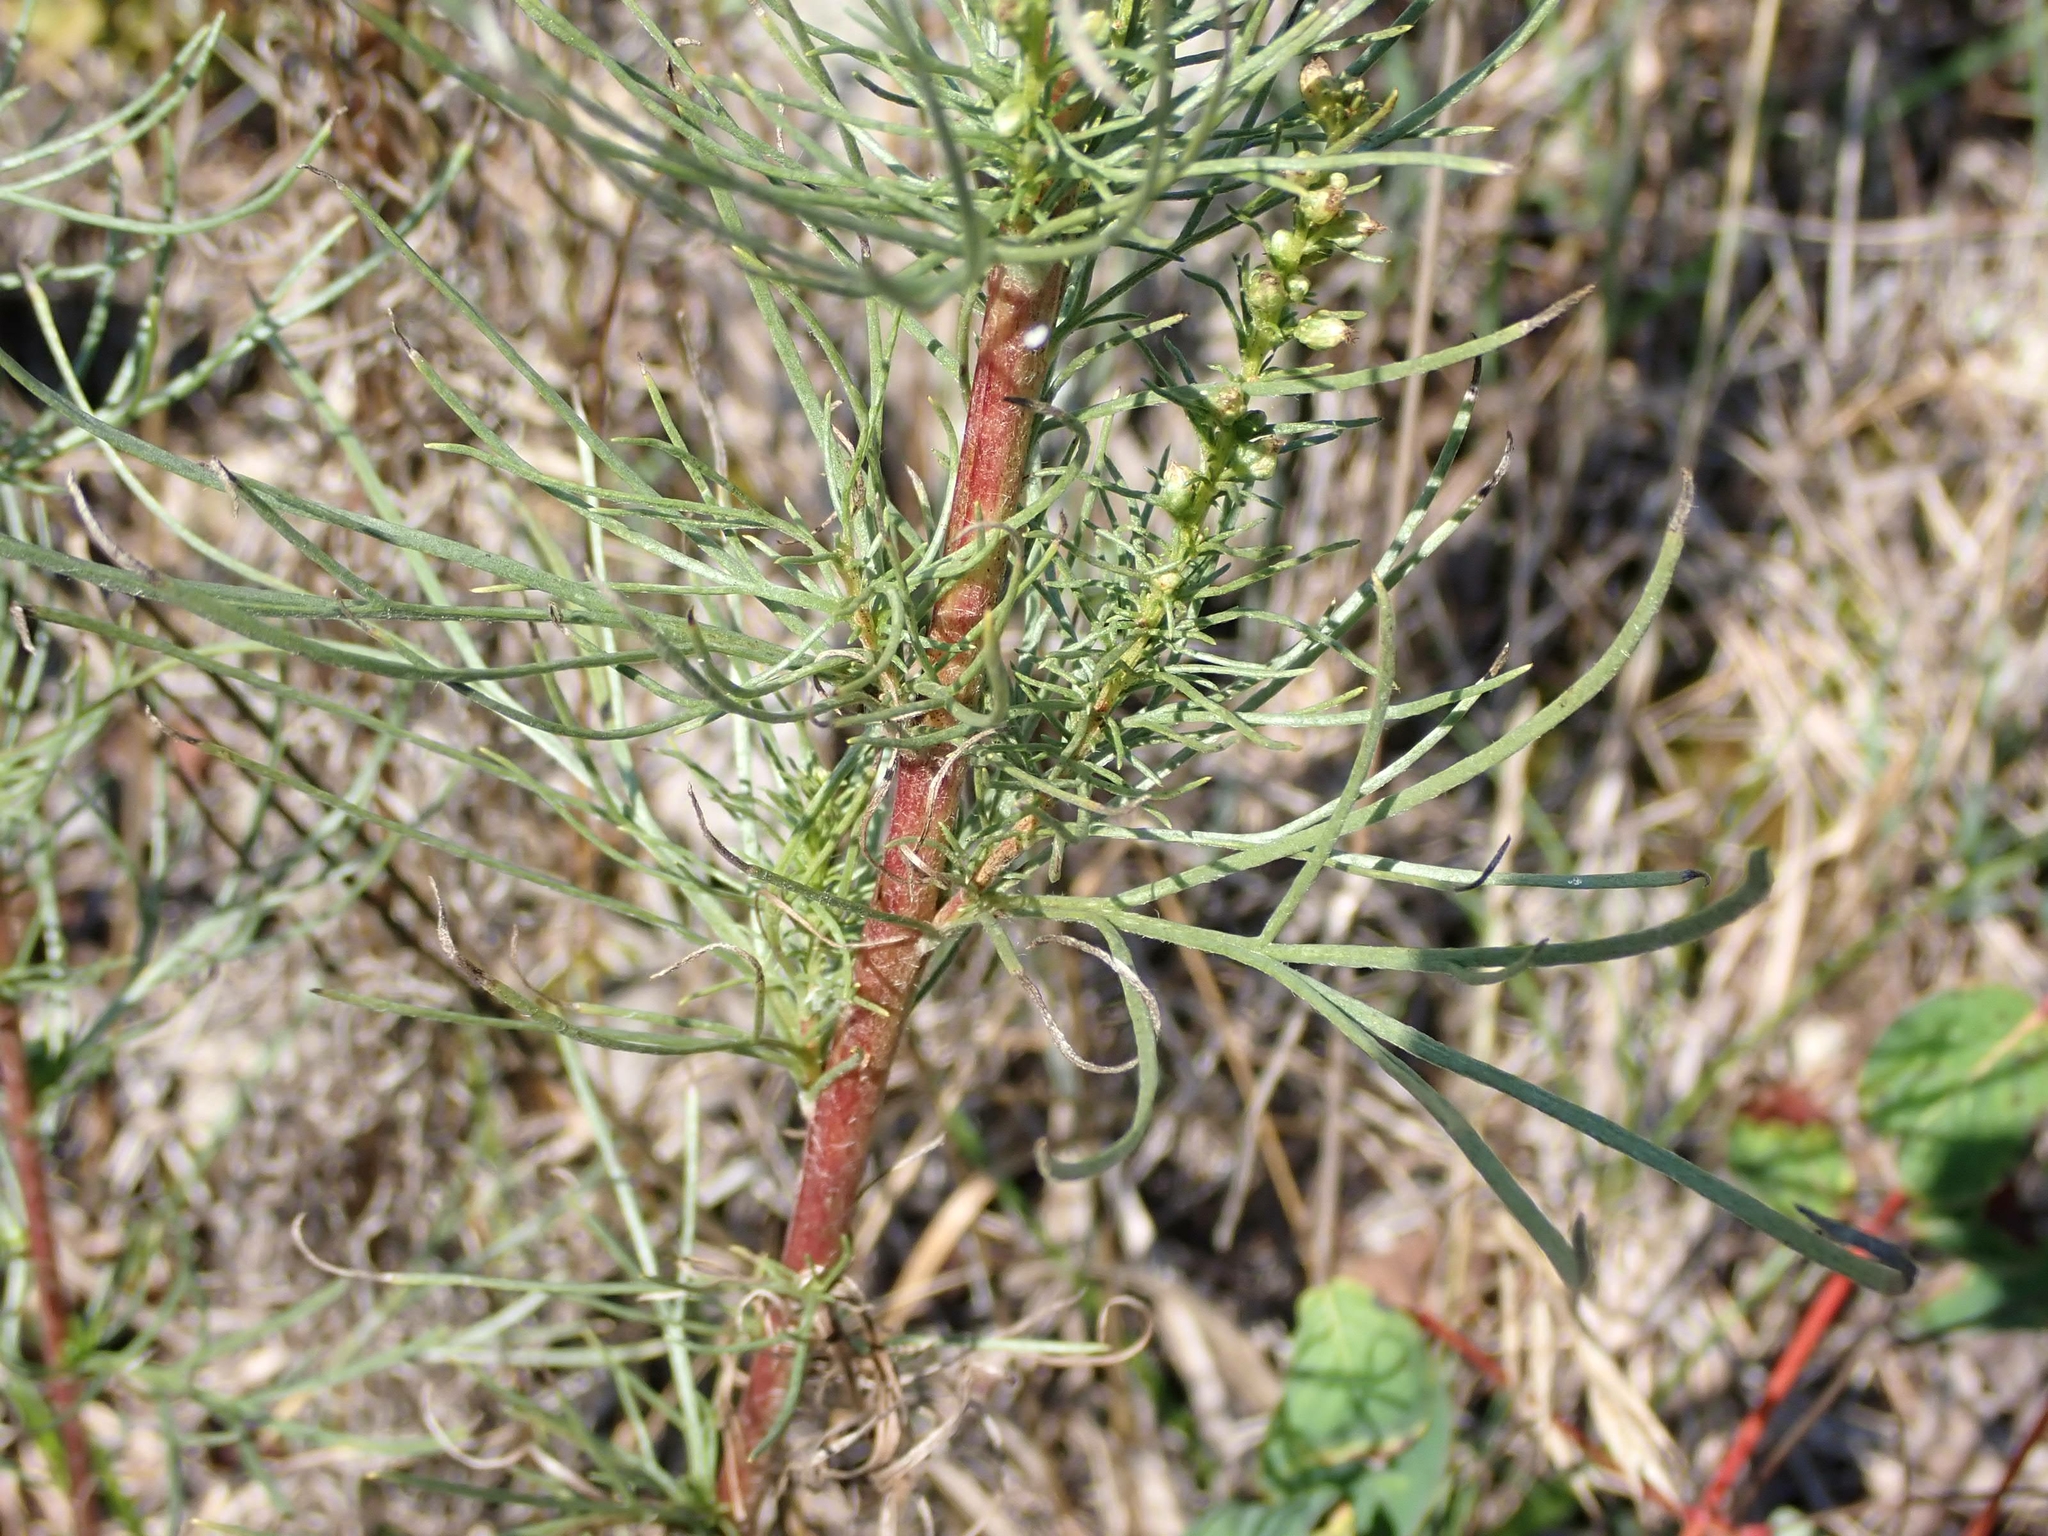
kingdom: Plantae
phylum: Tracheophyta
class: Magnoliopsida
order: Asterales
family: Asteraceae
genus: Artemisia
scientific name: Artemisia campestris
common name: Field wormwood
